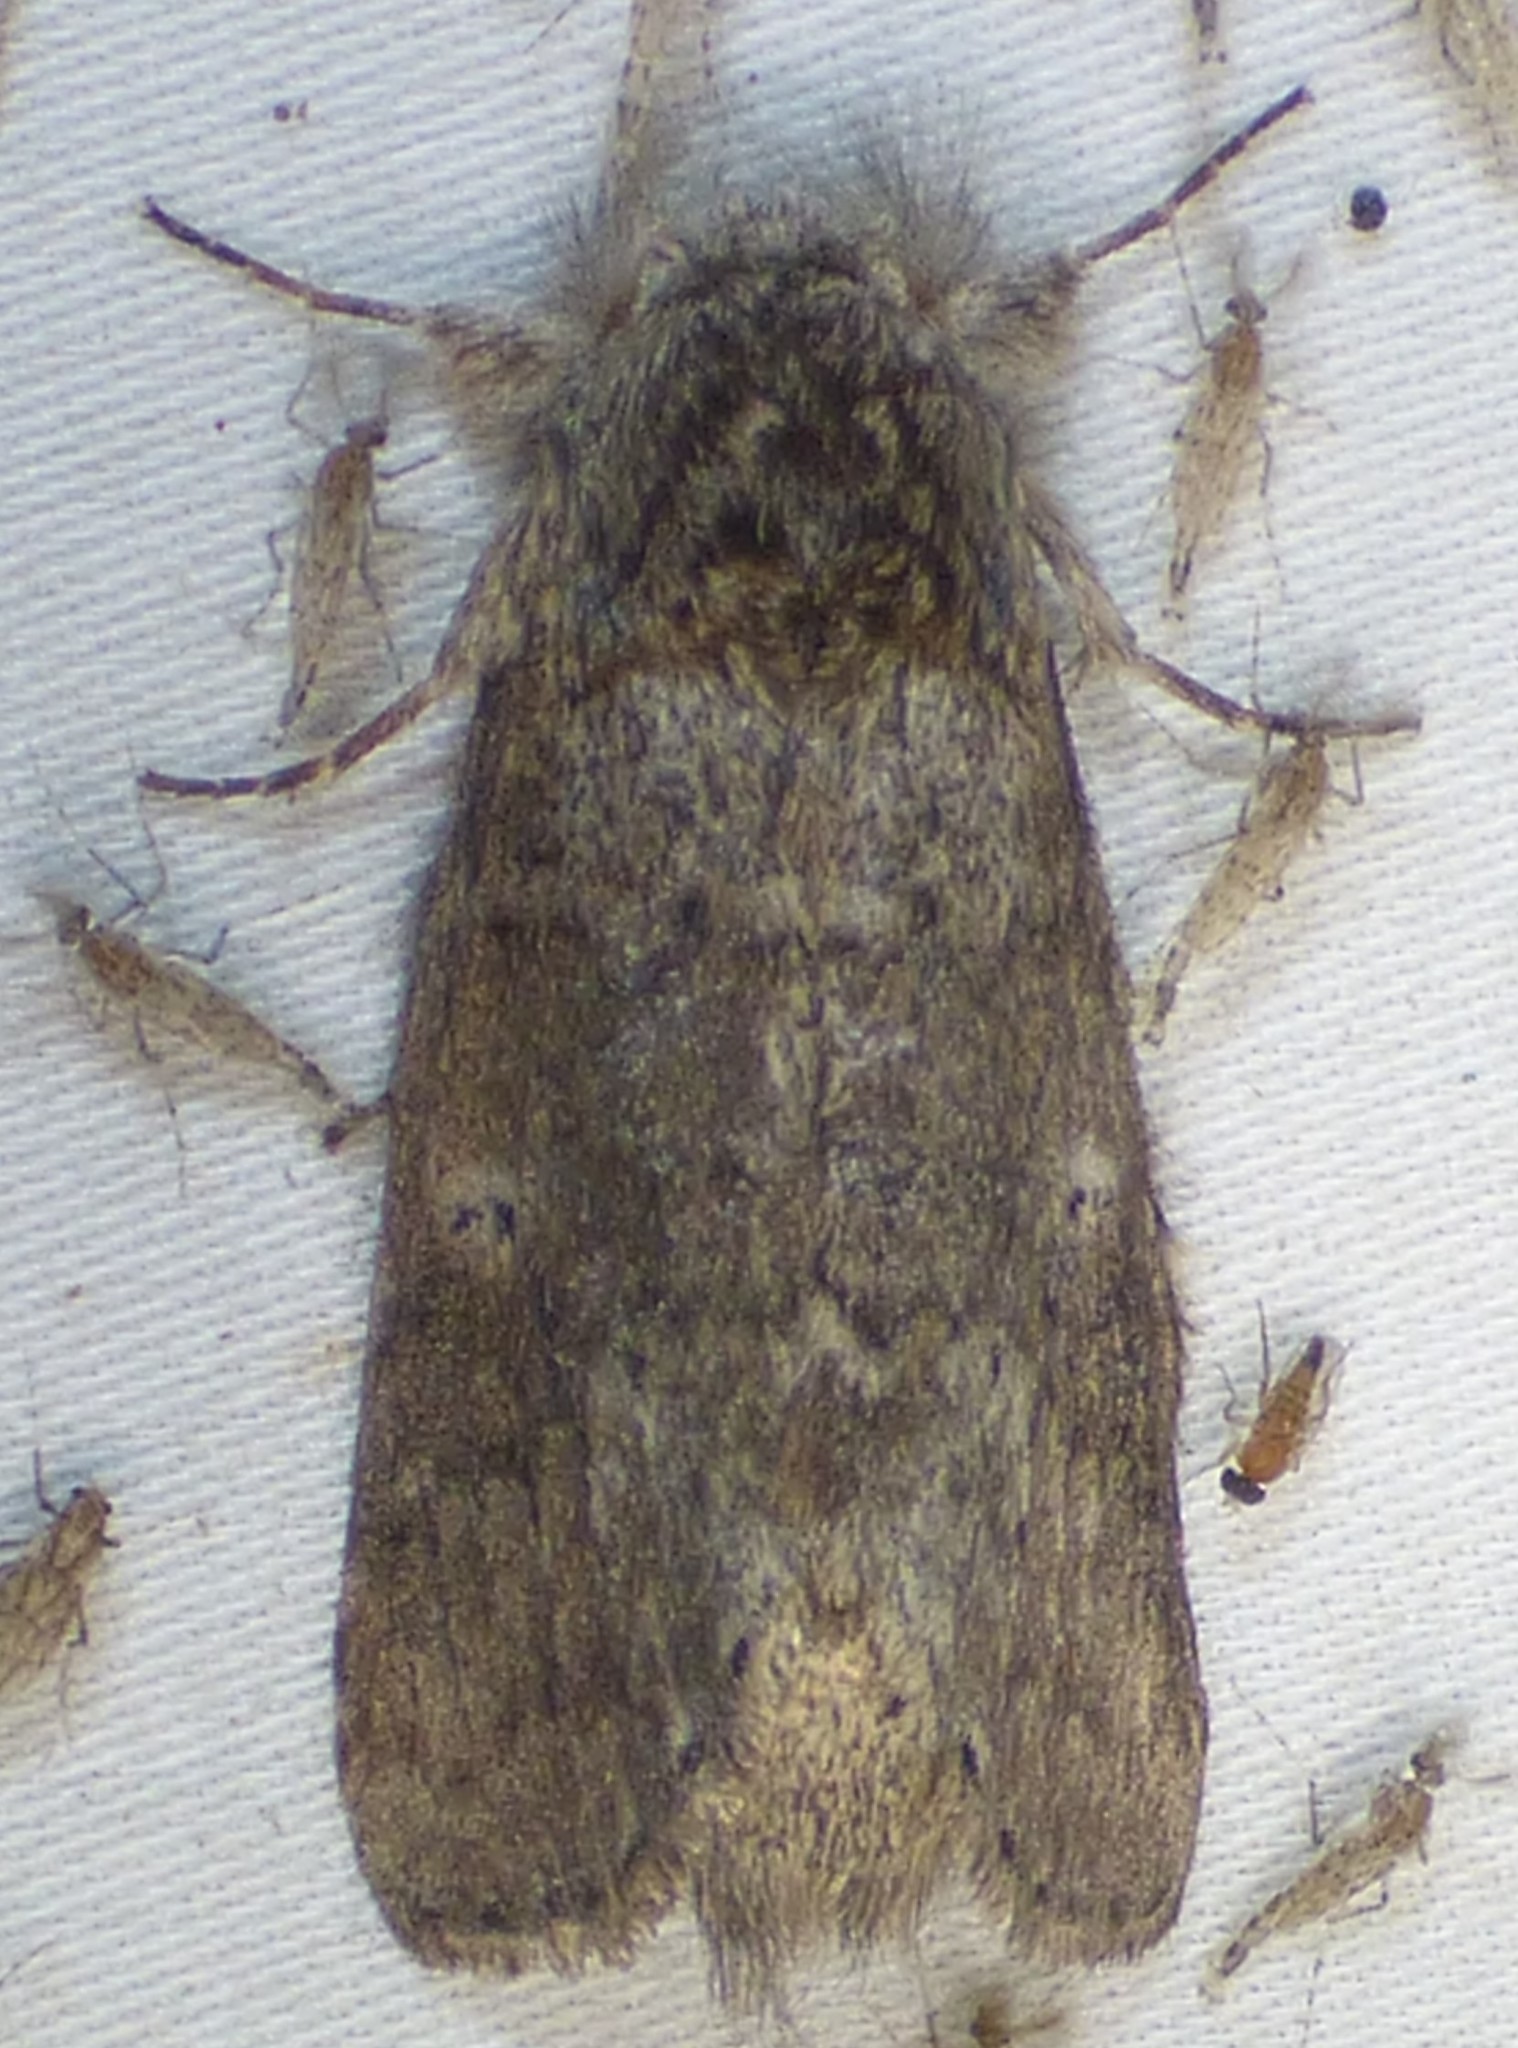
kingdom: Animalia
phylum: Arthropoda
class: Insecta
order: Lepidoptera
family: Notodontidae
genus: Lochmaeus
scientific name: Lochmaeus manteo
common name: Variable oakleaf caterpillar moth
